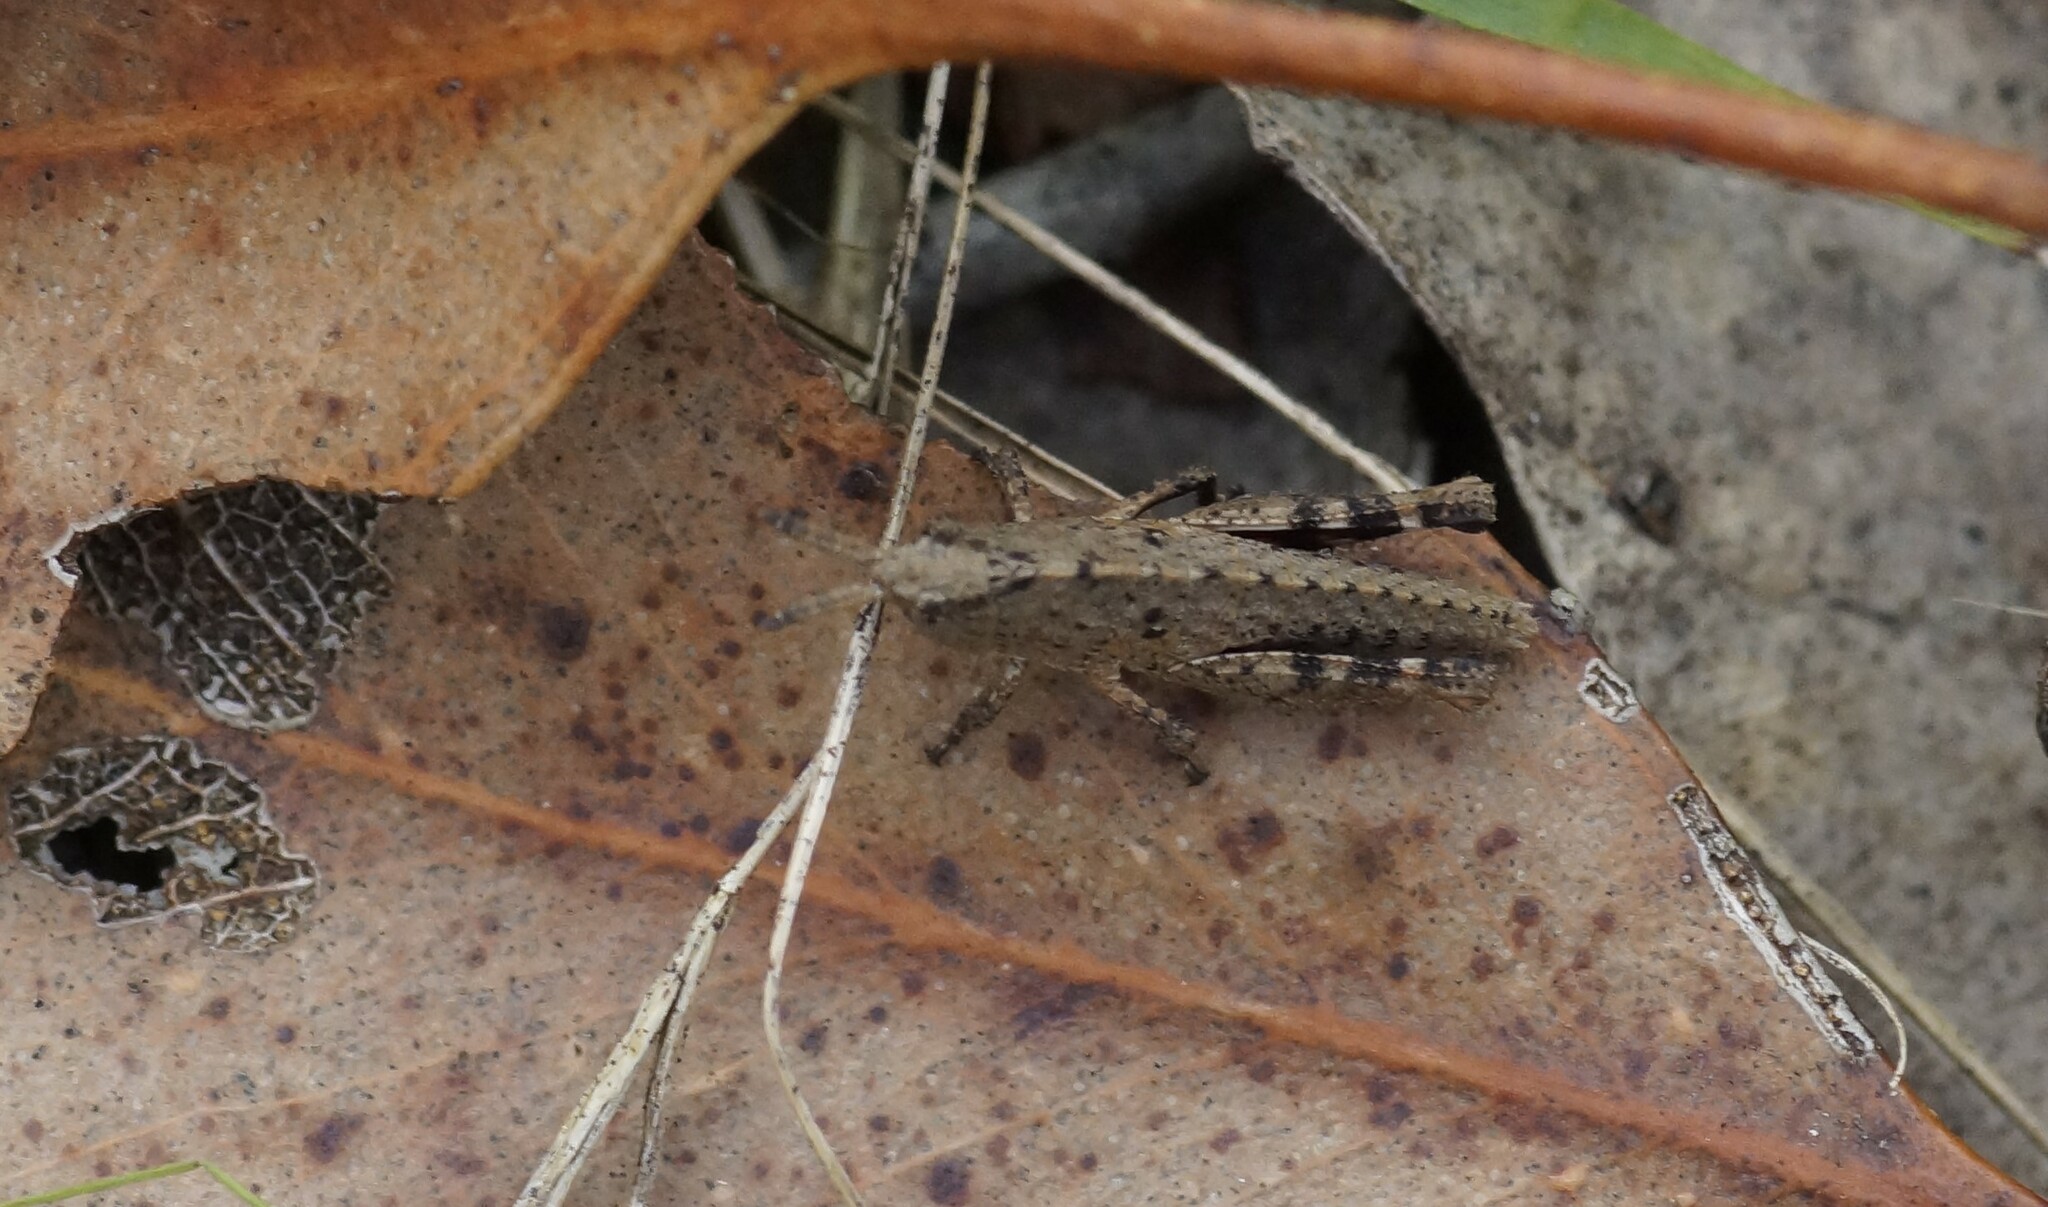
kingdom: Animalia
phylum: Arthropoda
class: Insecta
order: Orthoptera
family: Acrididae
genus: Goniaea
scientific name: Goniaea opomaloides
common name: Mimetic gumleaf grasshopper
